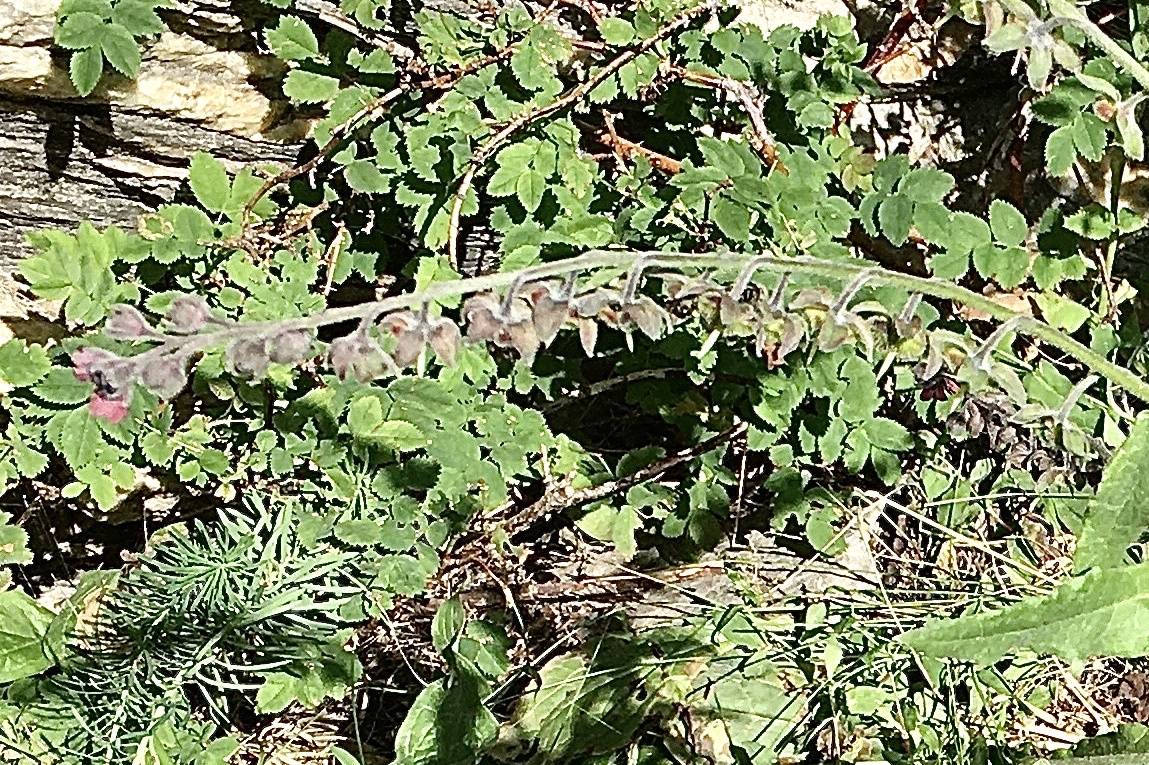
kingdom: Plantae
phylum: Tracheophyta
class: Magnoliopsida
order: Boraginales
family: Boraginaceae
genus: Cynoglossum
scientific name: Cynoglossum officinale
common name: Hound's-tongue
